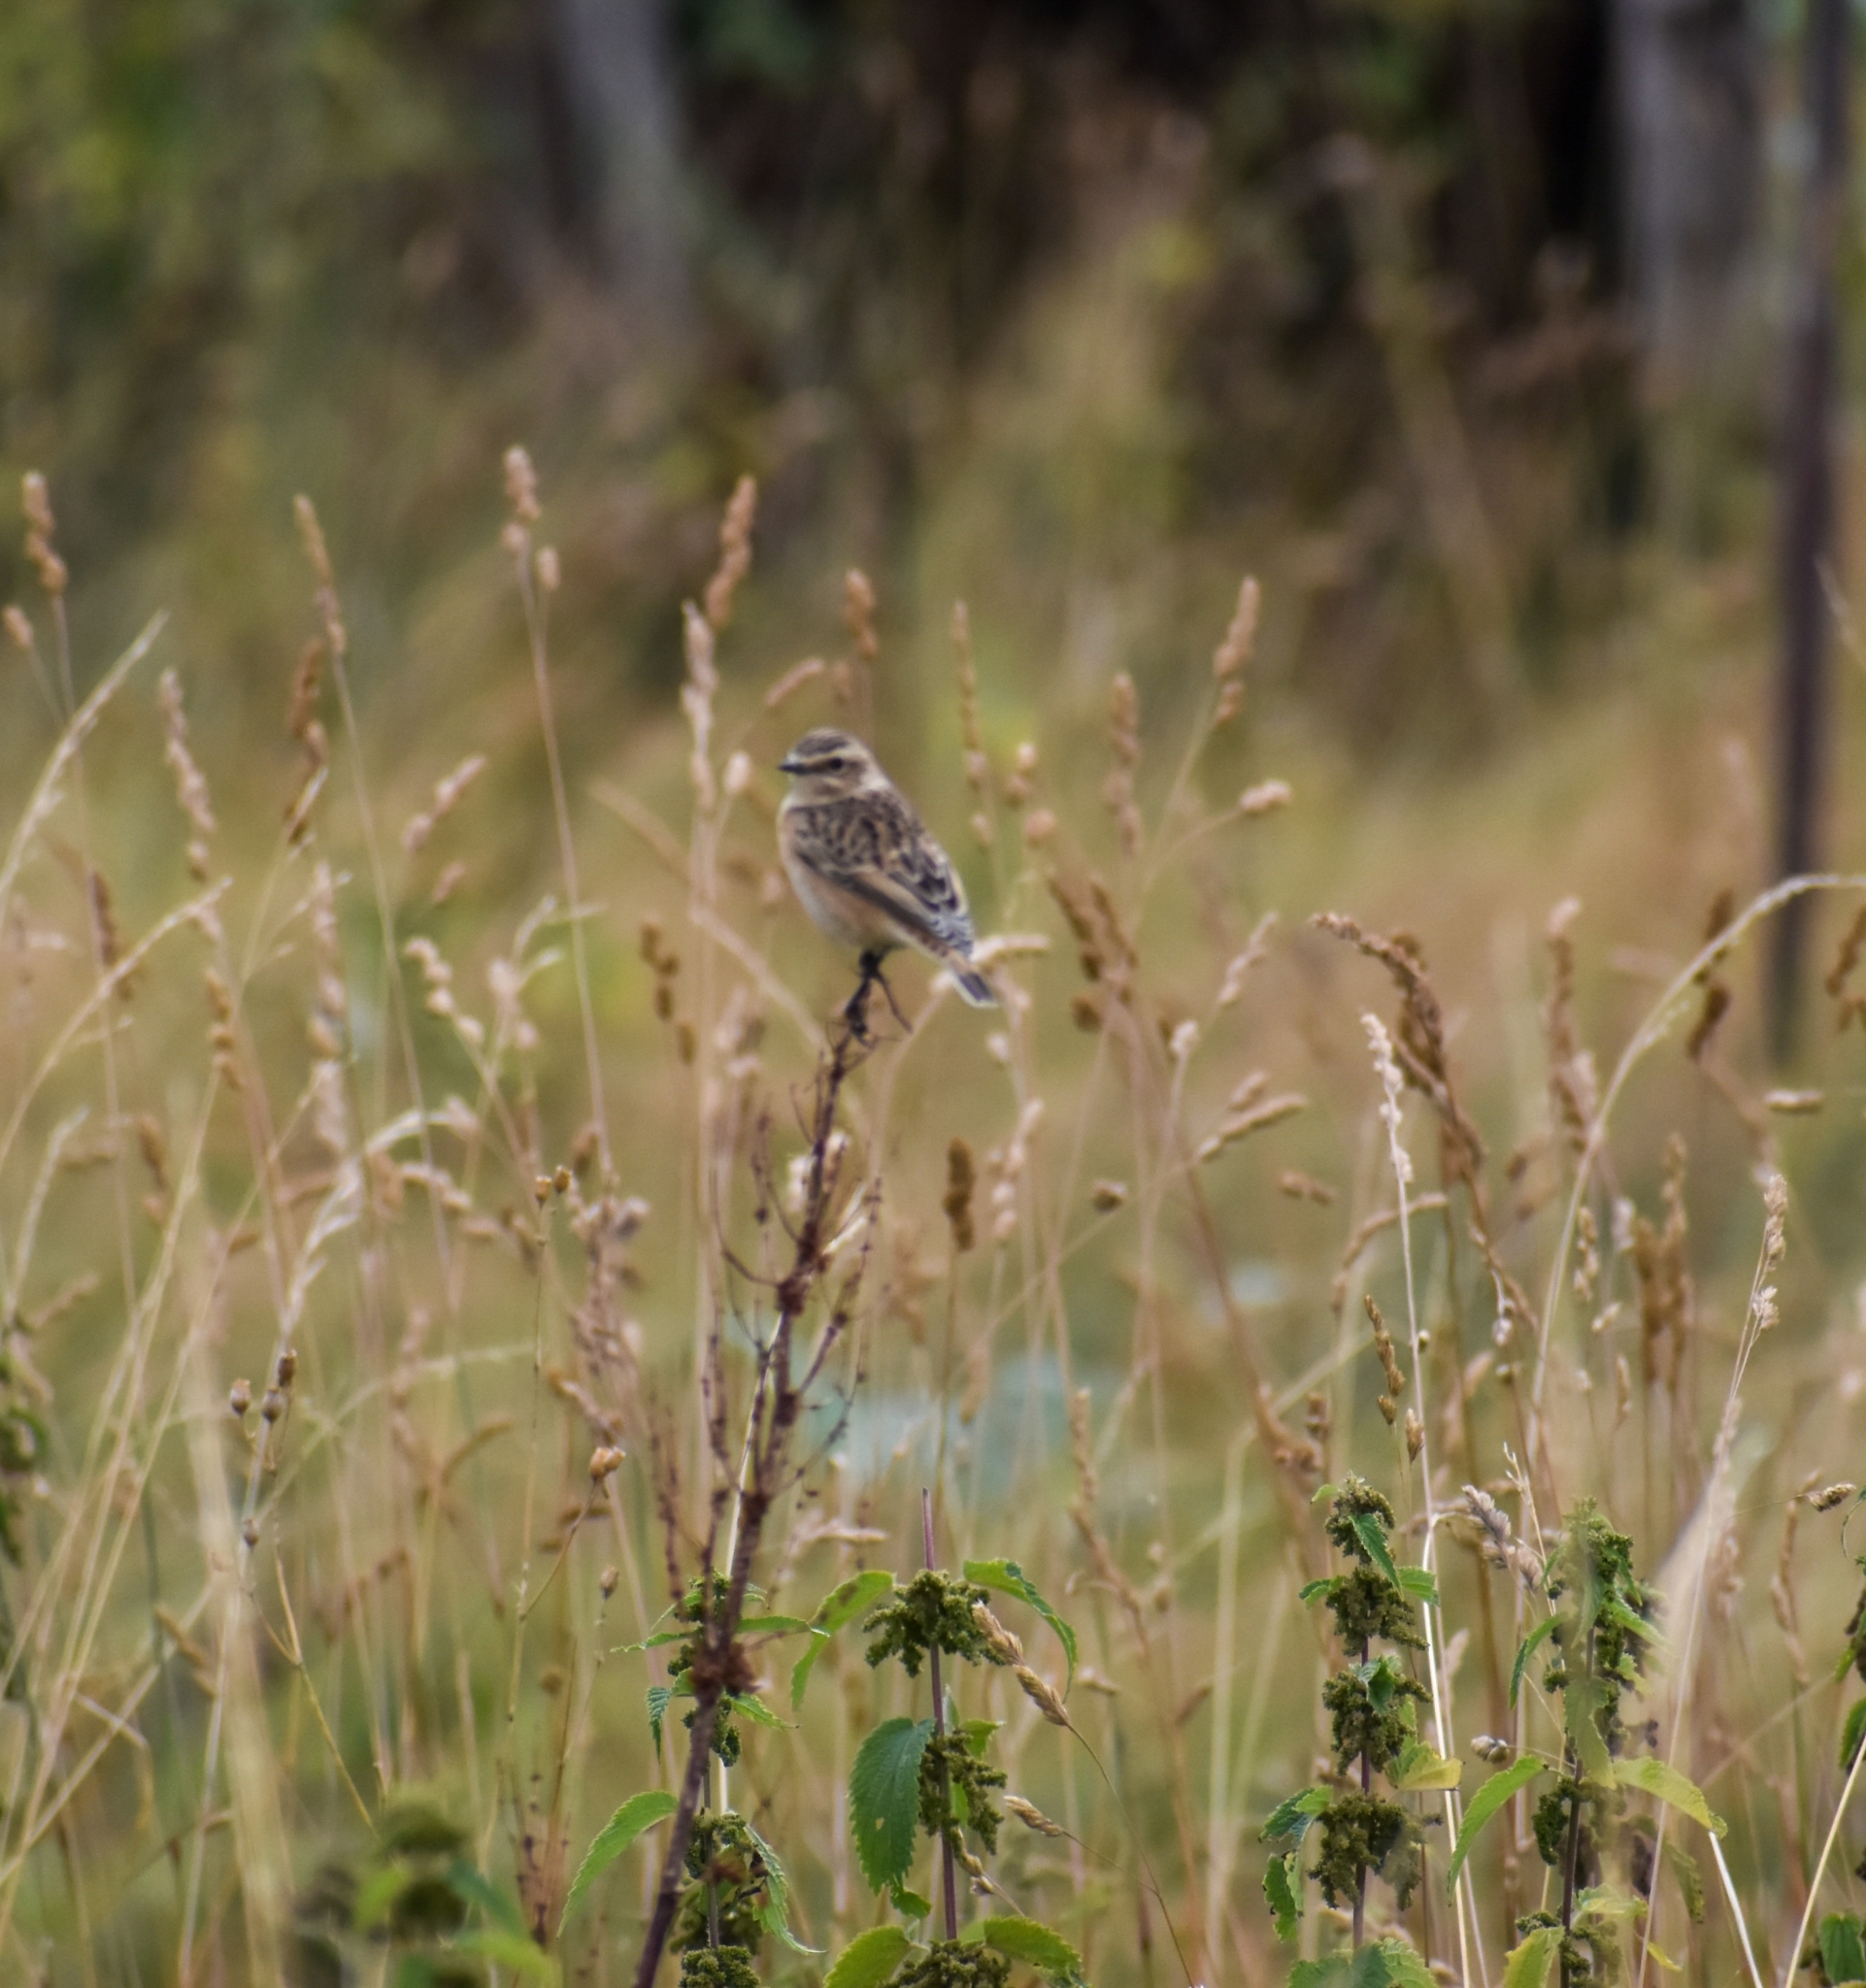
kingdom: Animalia
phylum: Chordata
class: Aves
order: Passeriformes
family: Muscicapidae
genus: Saxicola
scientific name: Saxicola rubetra
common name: Whinchat
